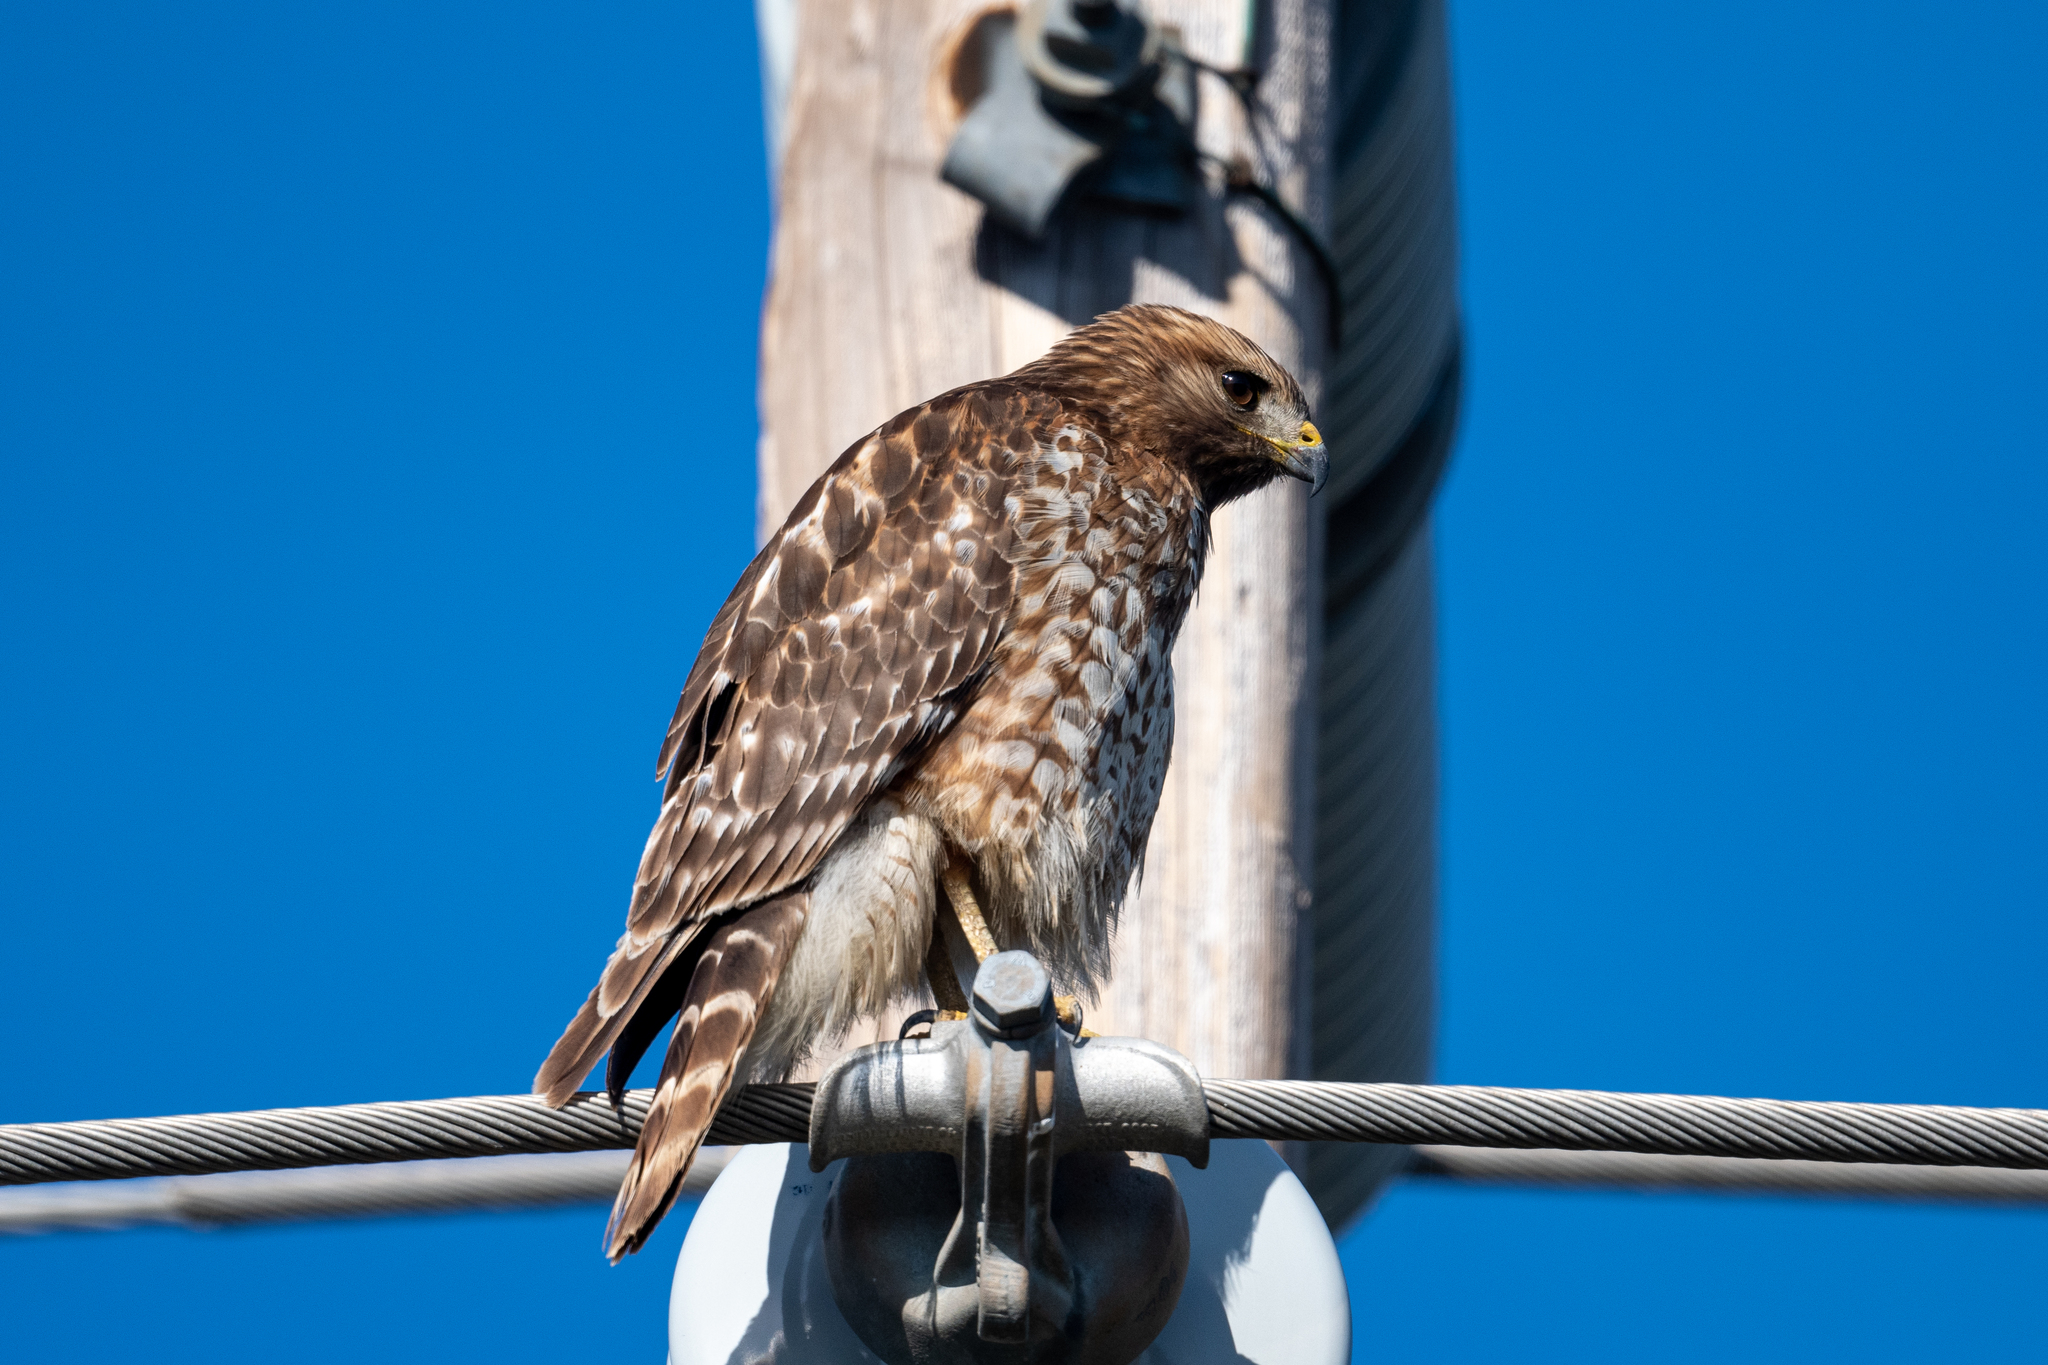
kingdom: Animalia
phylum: Chordata
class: Aves
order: Accipitriformes
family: Accipitridae
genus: Buteo
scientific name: Buteo lineatus
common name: Red-shouldered hawk
